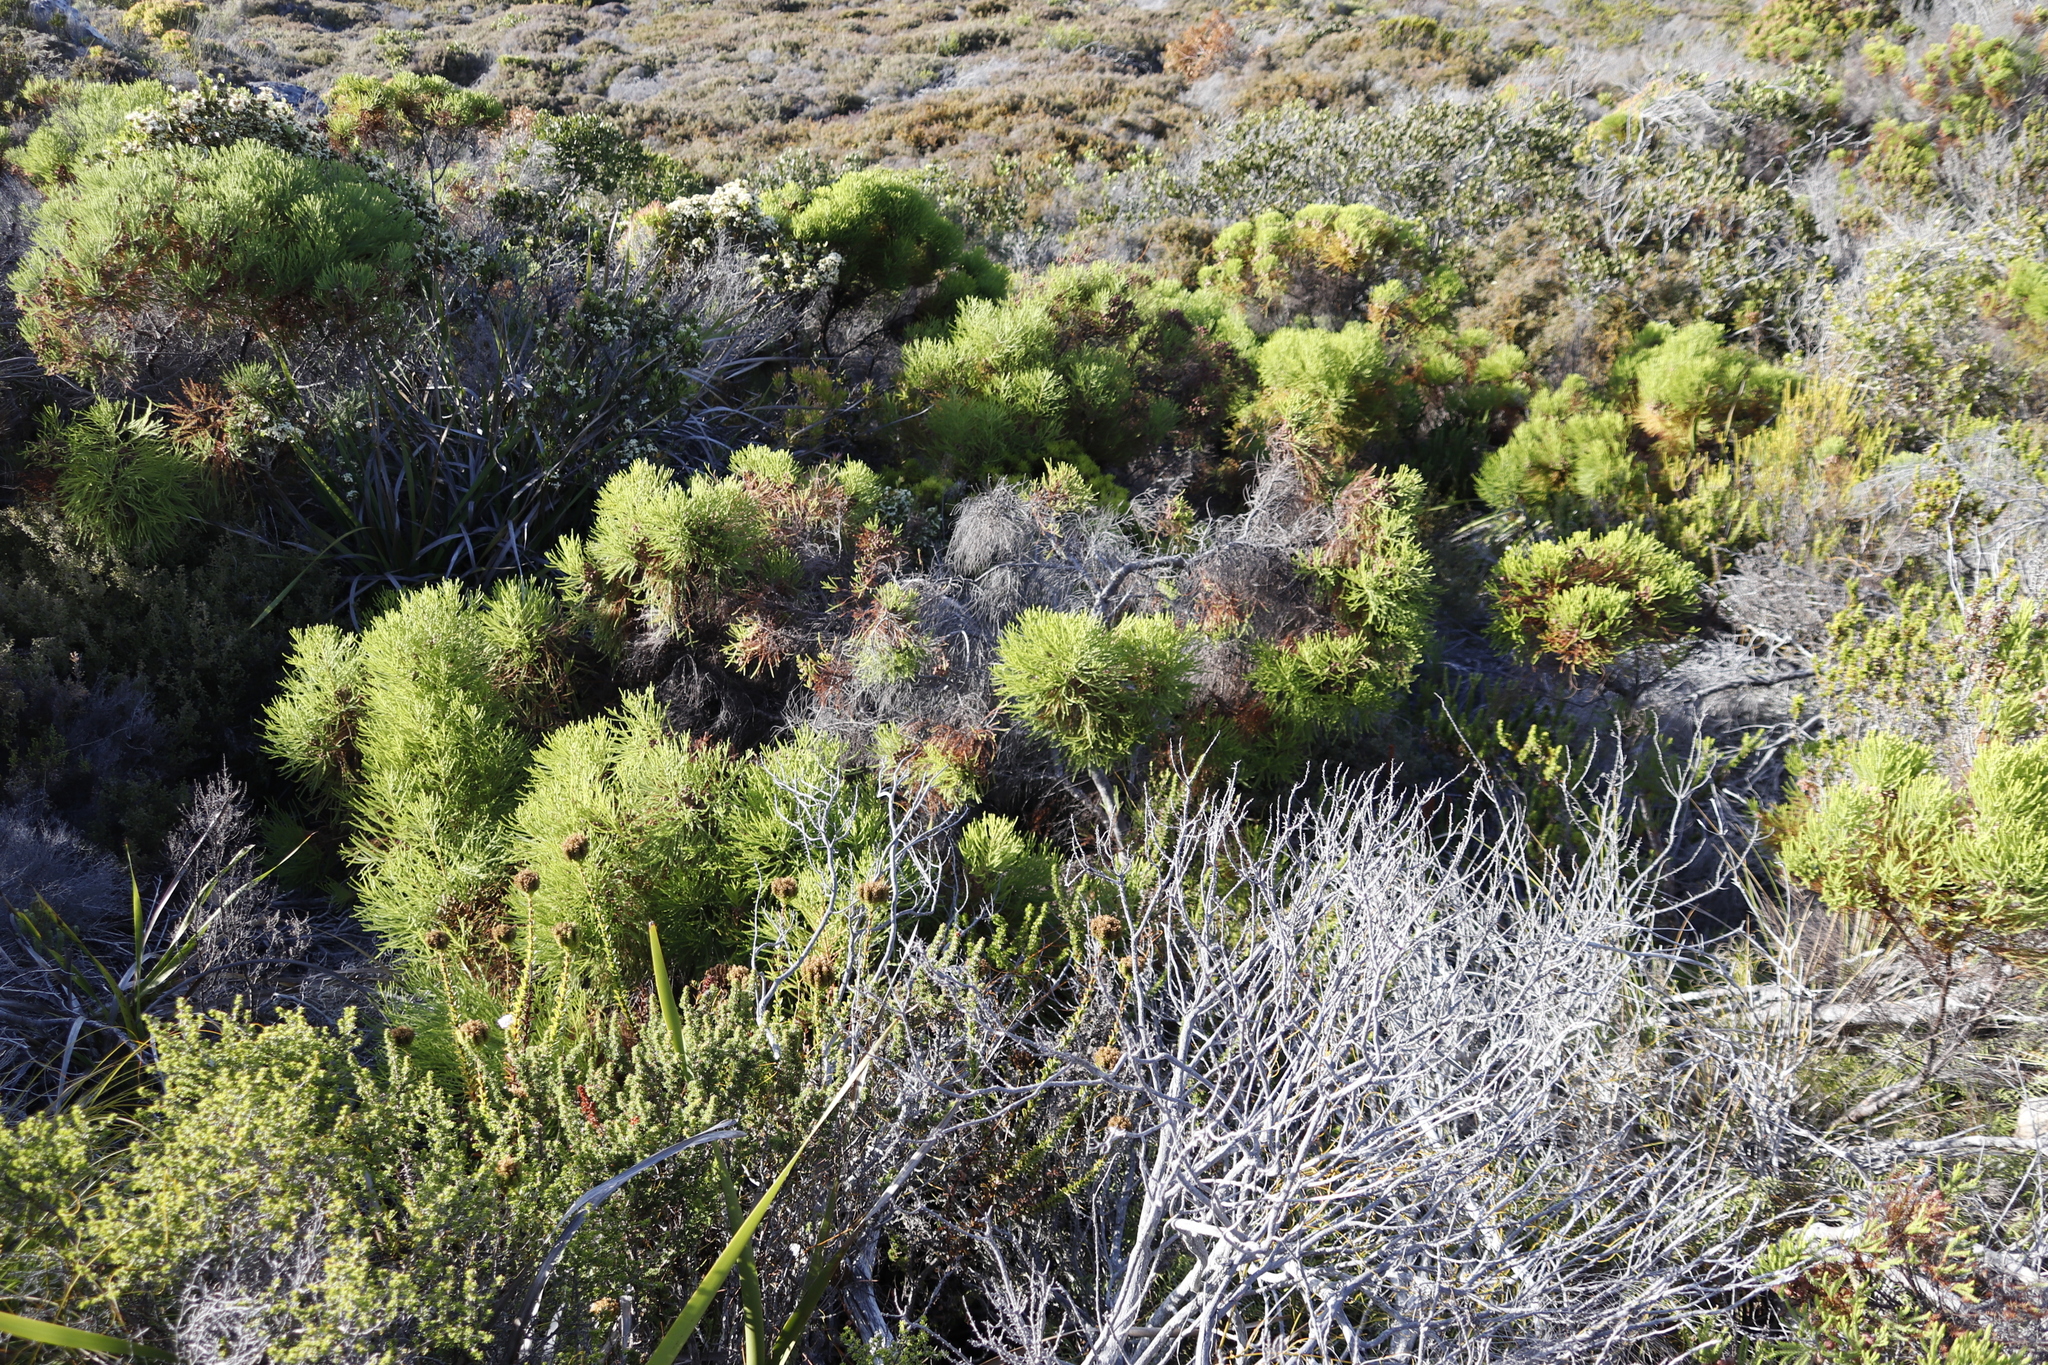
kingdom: Plantae
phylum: Tracheophyta
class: Magnoliopsida
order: Bruniales
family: Bruniaceae
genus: Berzelia
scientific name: Berzelia lanuginosa
